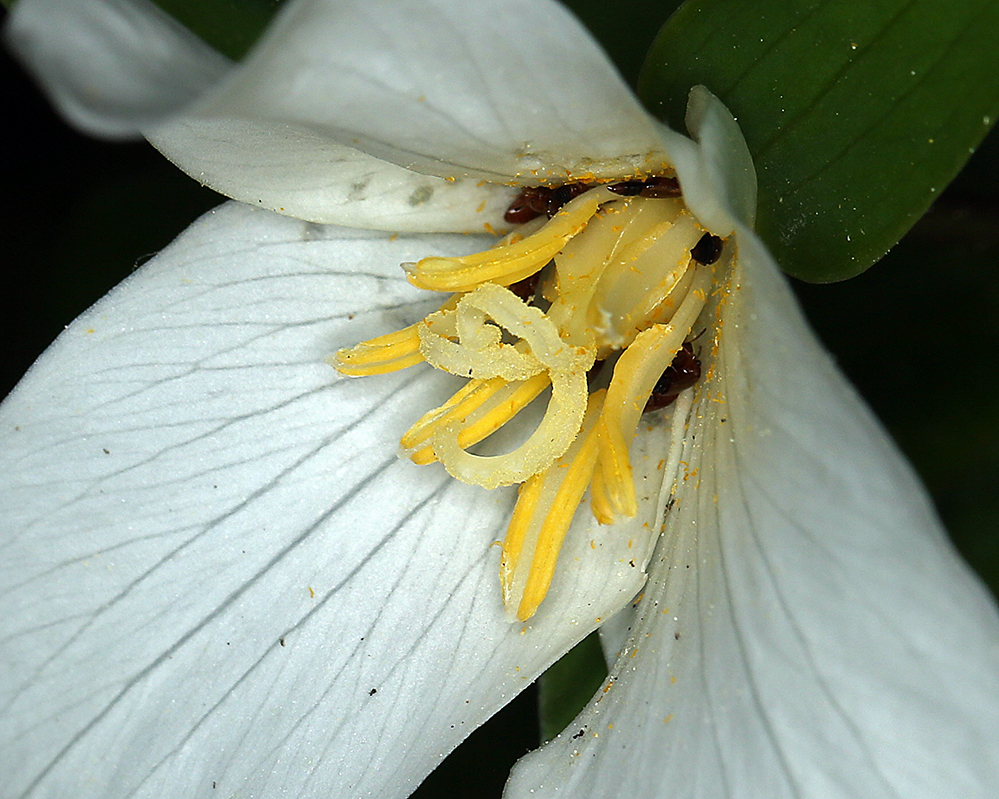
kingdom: Plantae
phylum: Tracheophyta
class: Liliopsida
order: Liliales
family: Melanthiaceae
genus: Trillium
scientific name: Trillium ovatum
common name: Pacific trillium
